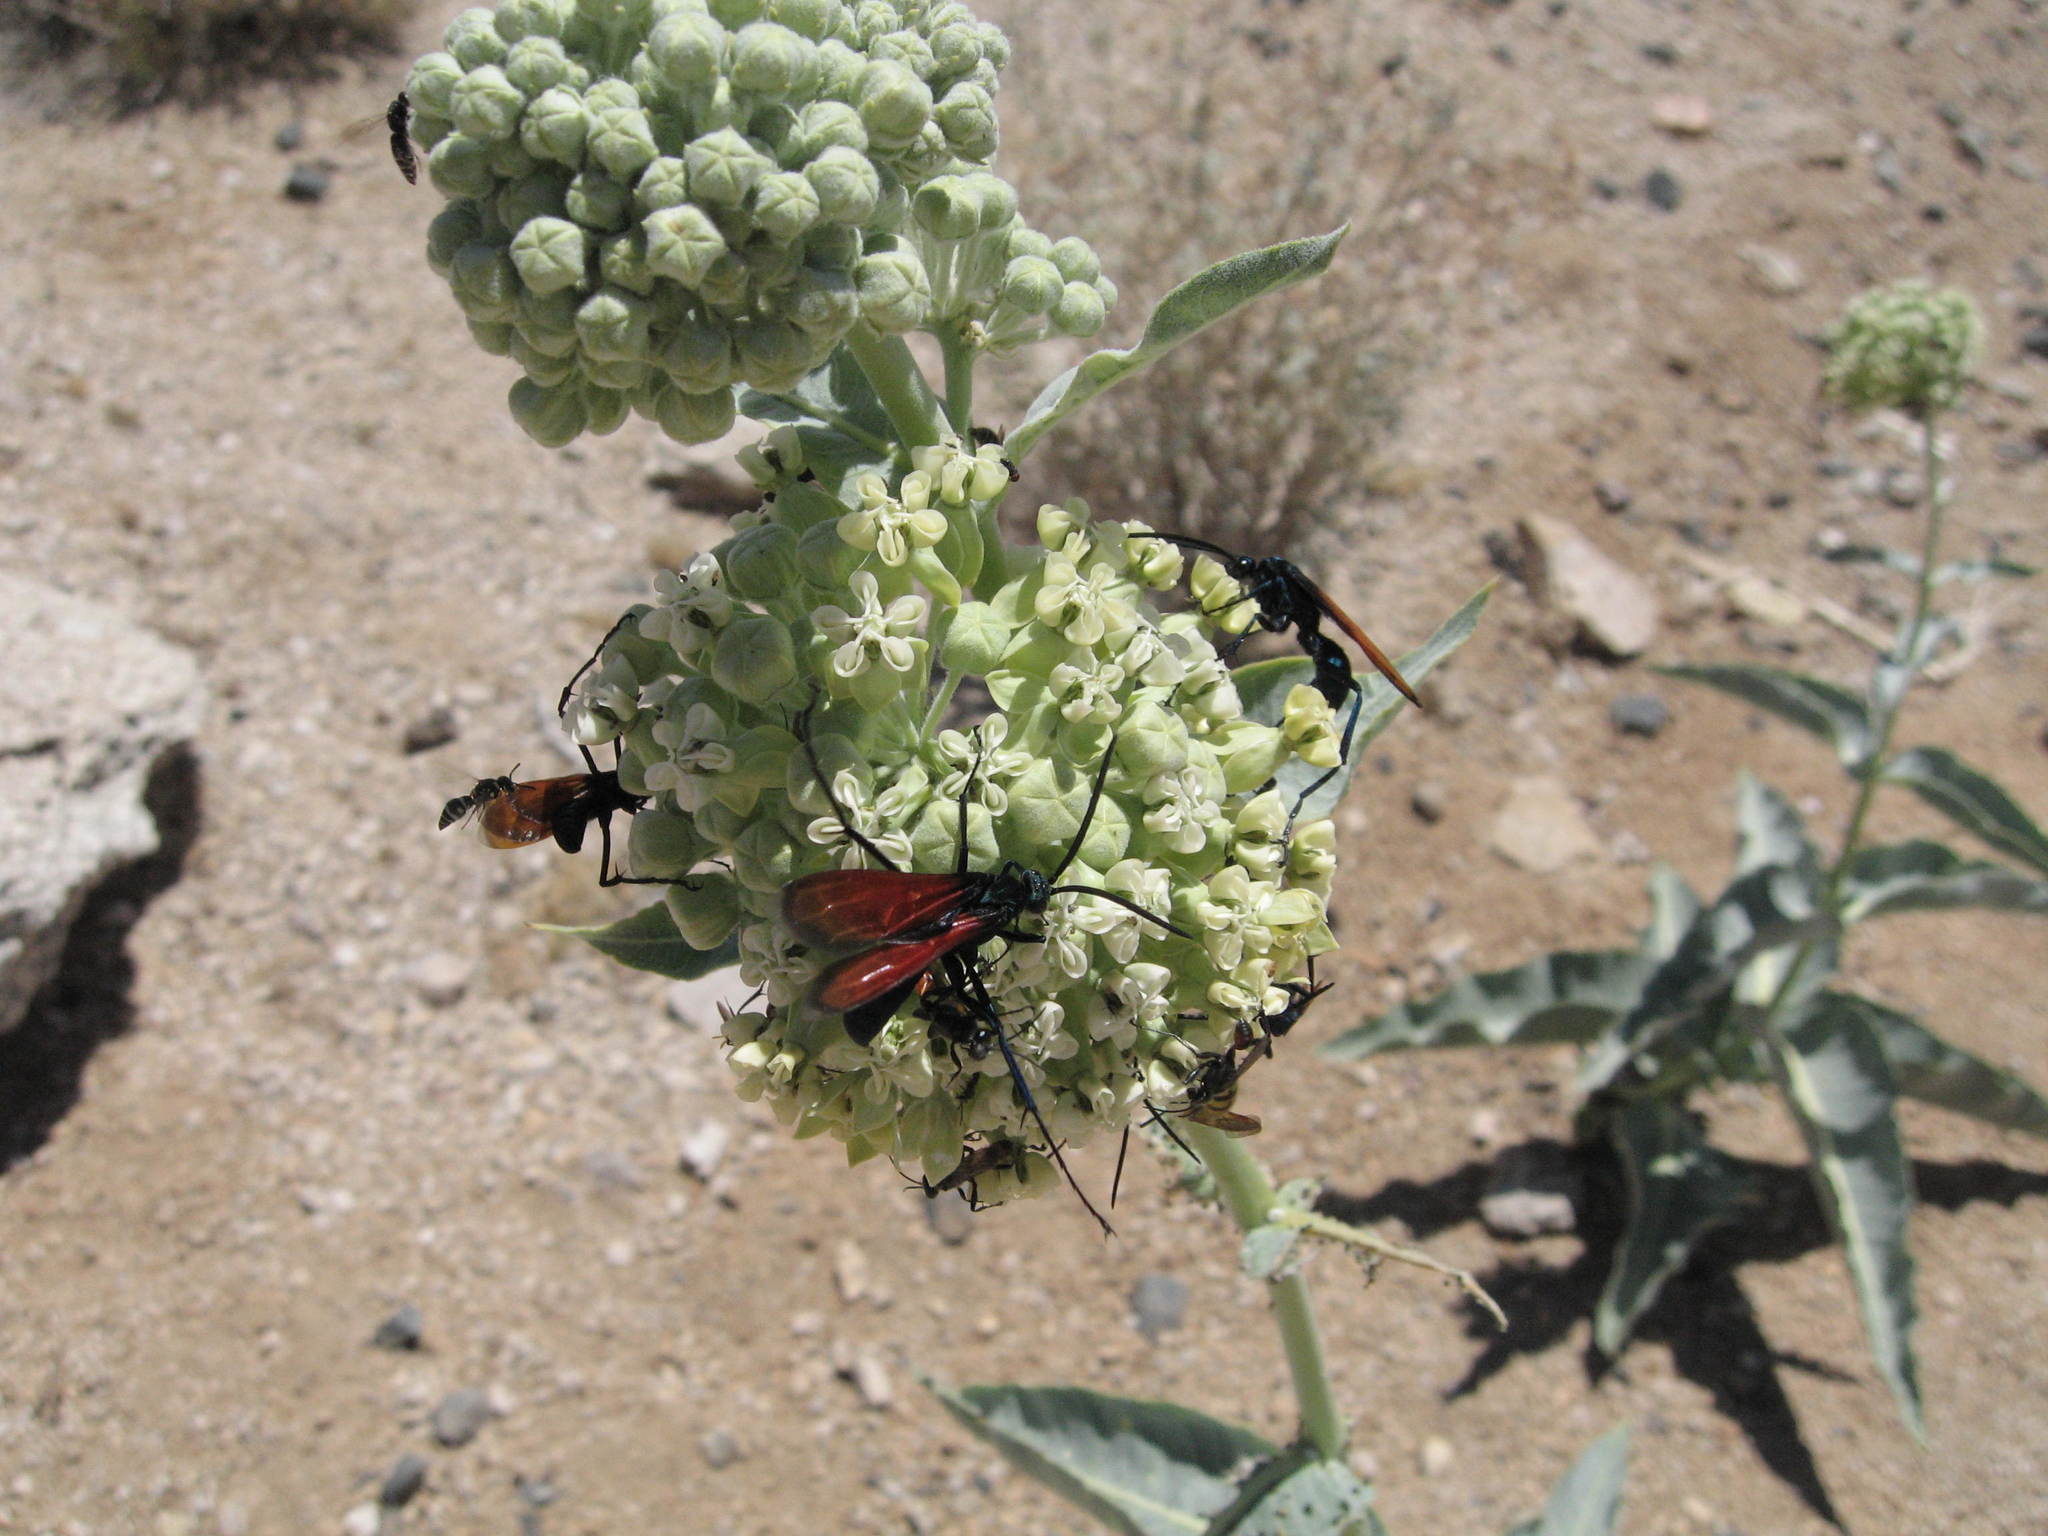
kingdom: Plantae
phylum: Tracheophyta
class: Magnoliopsida
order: Gentianales
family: Apocynaceae
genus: Asclepias
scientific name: Asclepias erosa
